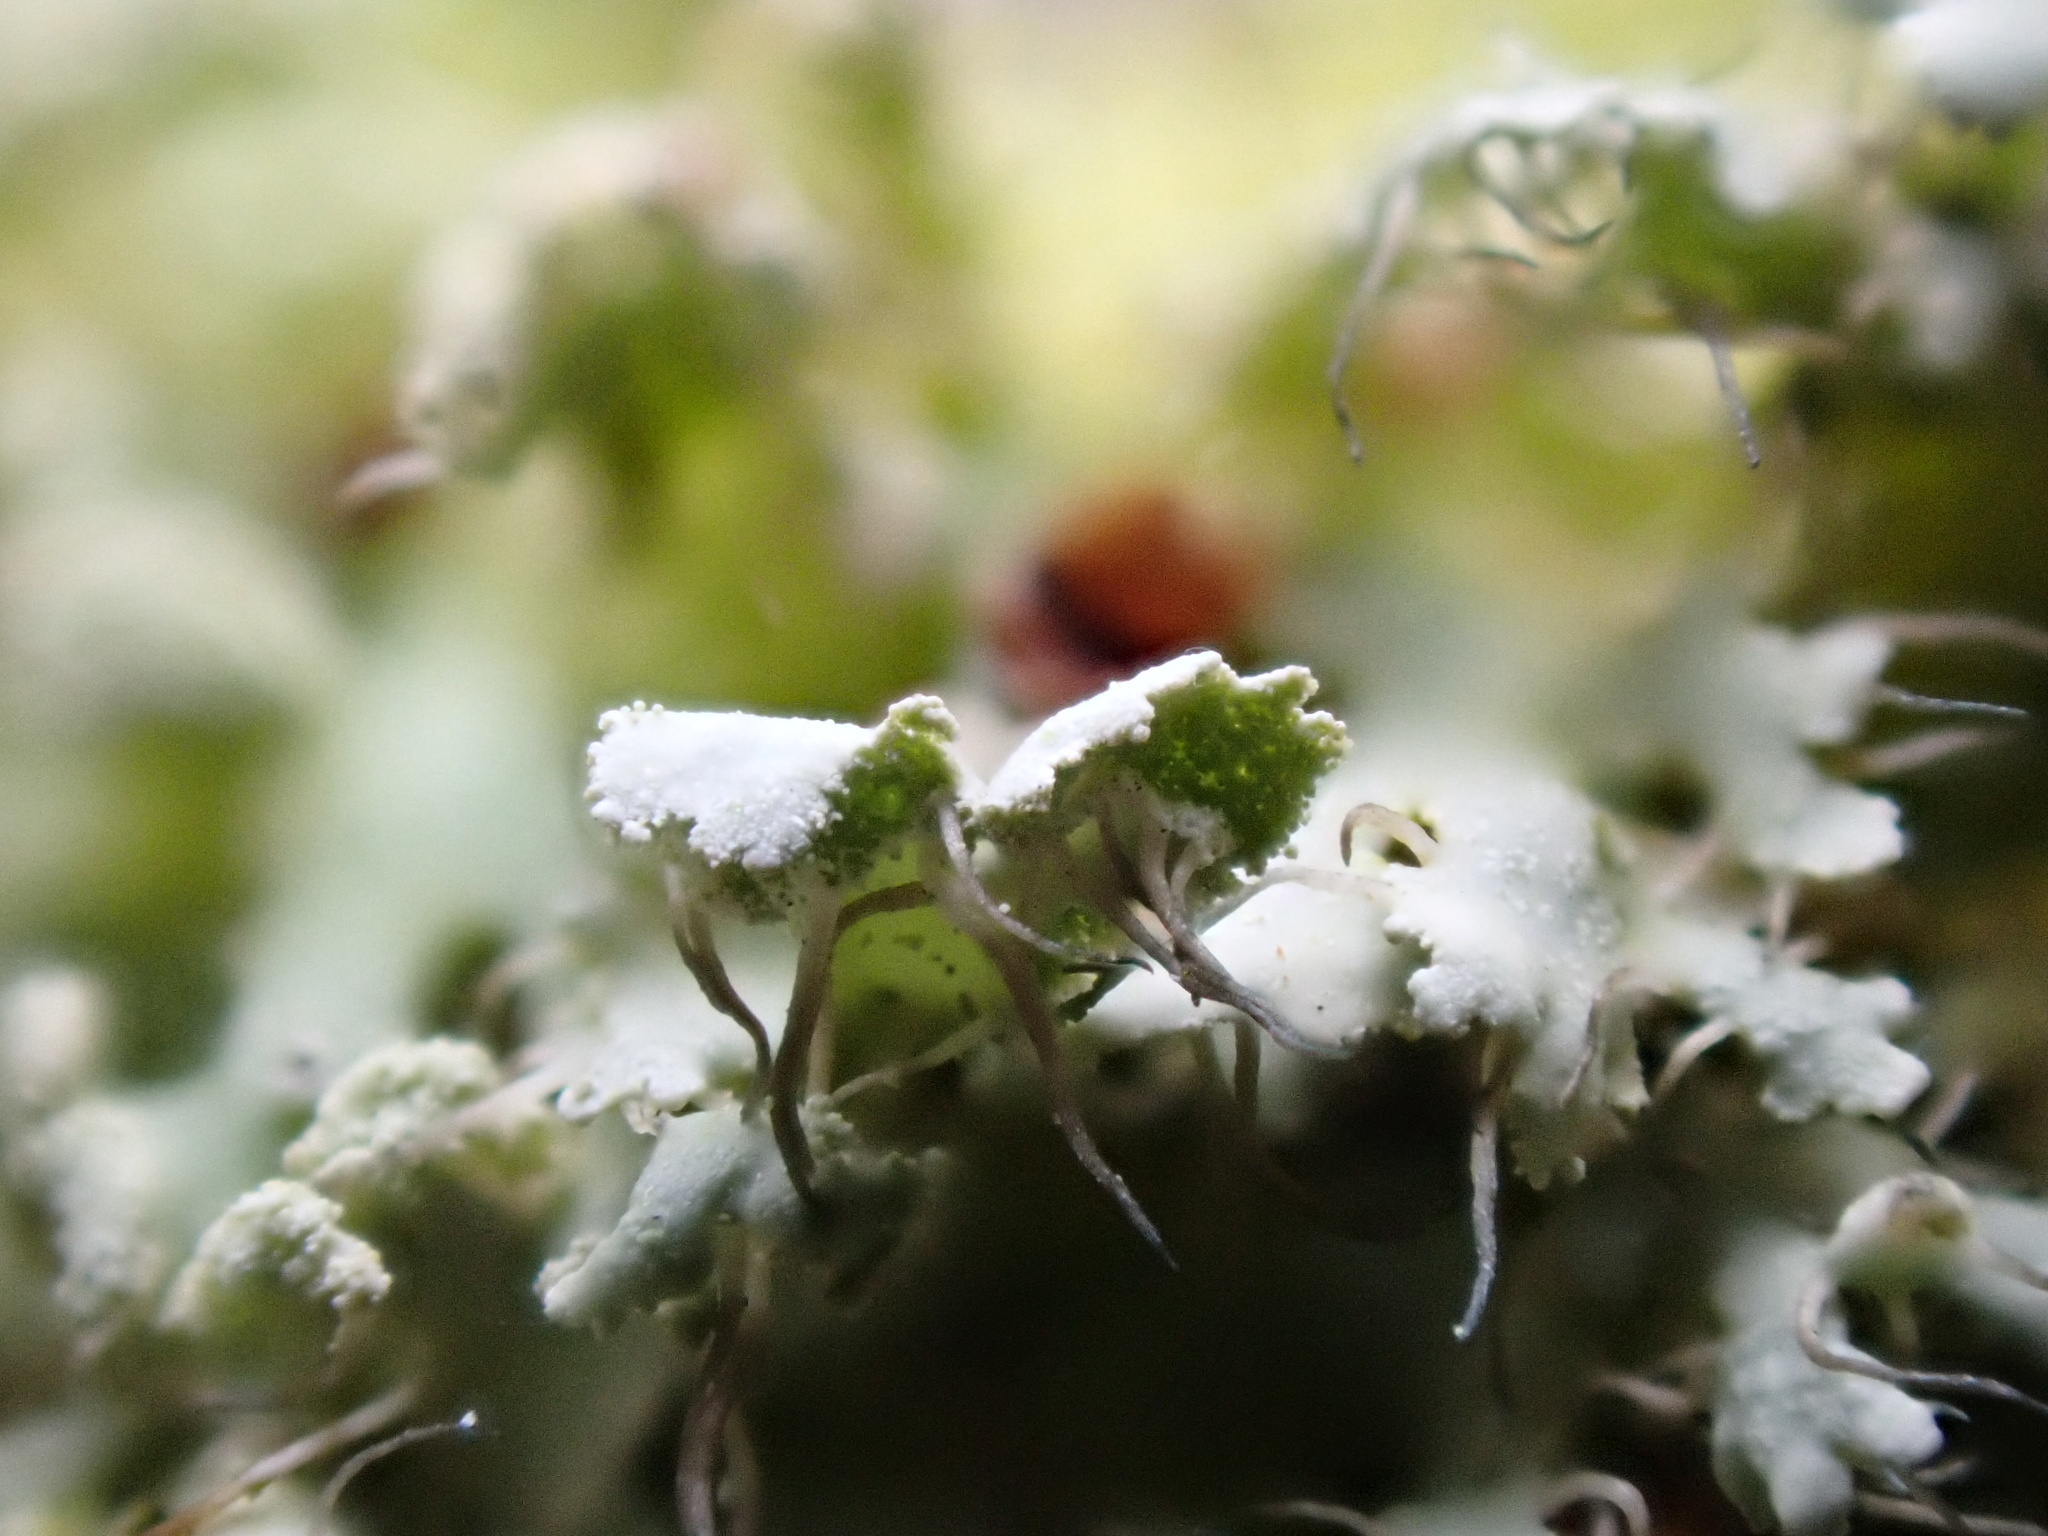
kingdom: Fungi
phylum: Ascomycota
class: Lecanoromycetes
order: Caliciales
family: Physciaceae
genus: Physcia
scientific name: Physcia adscendens
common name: Hooded rosette lichen
